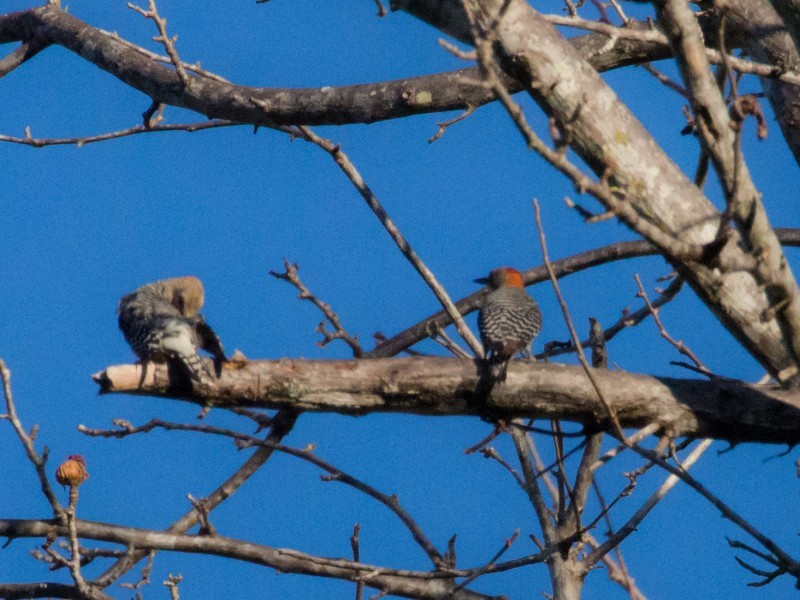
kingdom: Animalia
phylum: Chordata
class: Aves
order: Piciformes
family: Picidae
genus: Melanerpes
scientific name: Melanerpes rubricapillus
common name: Red-crowned woodpecker
